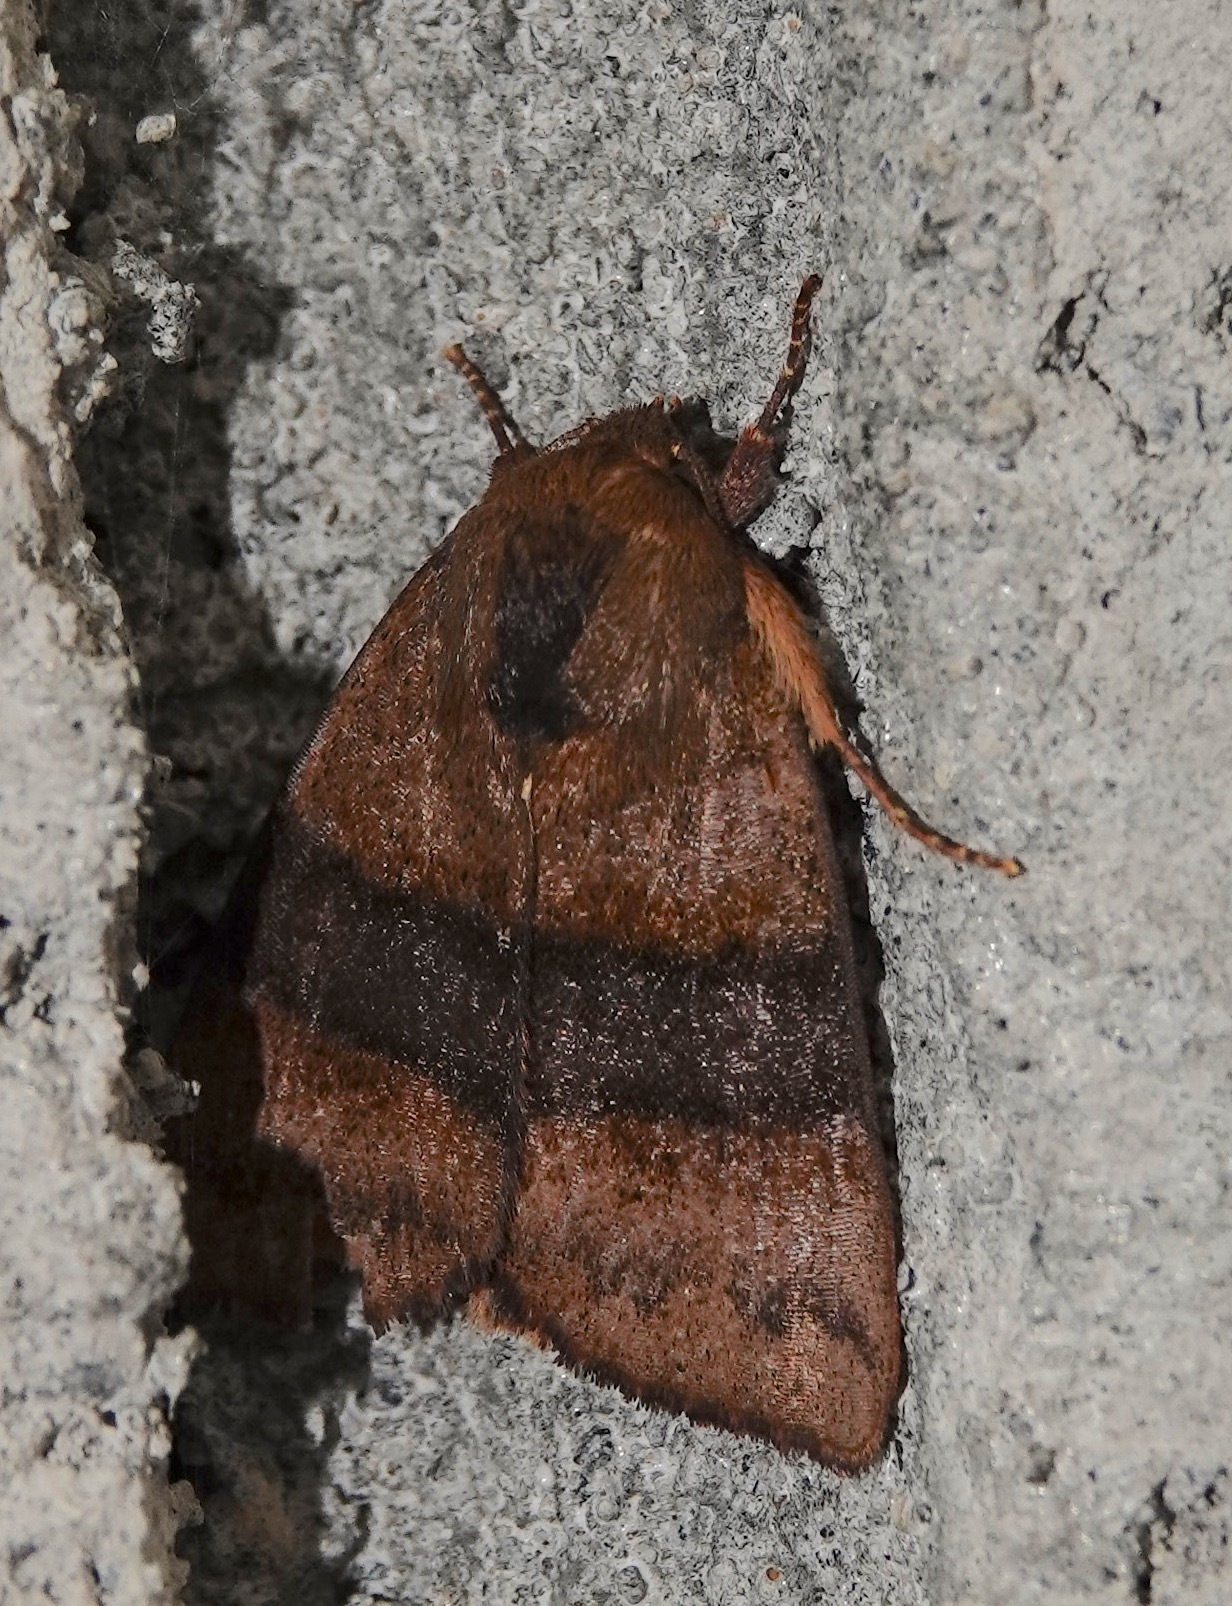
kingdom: Animalia
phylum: Arthropoda
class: Insecta
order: Lepidoptera
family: Nolidae
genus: Xenochroa
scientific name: Xenochroa ferriviridis
